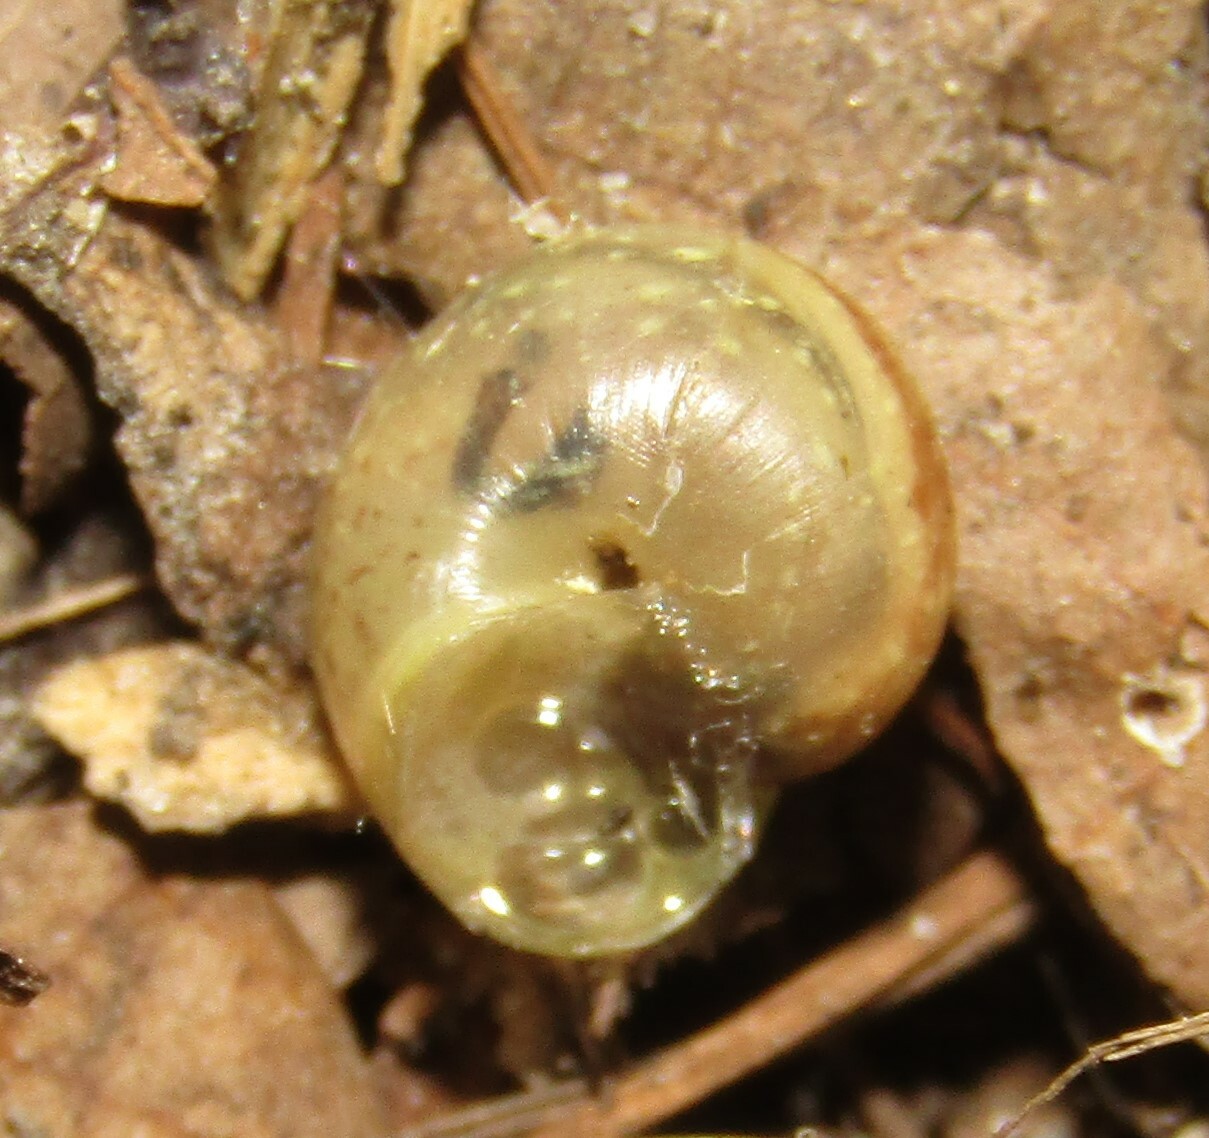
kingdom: Animalia
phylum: Mollusca
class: Gastropoda
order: Stylommatophora
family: Camaenidae
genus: Fruticicola
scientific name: Fruticicola fruticum
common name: Bush snail
